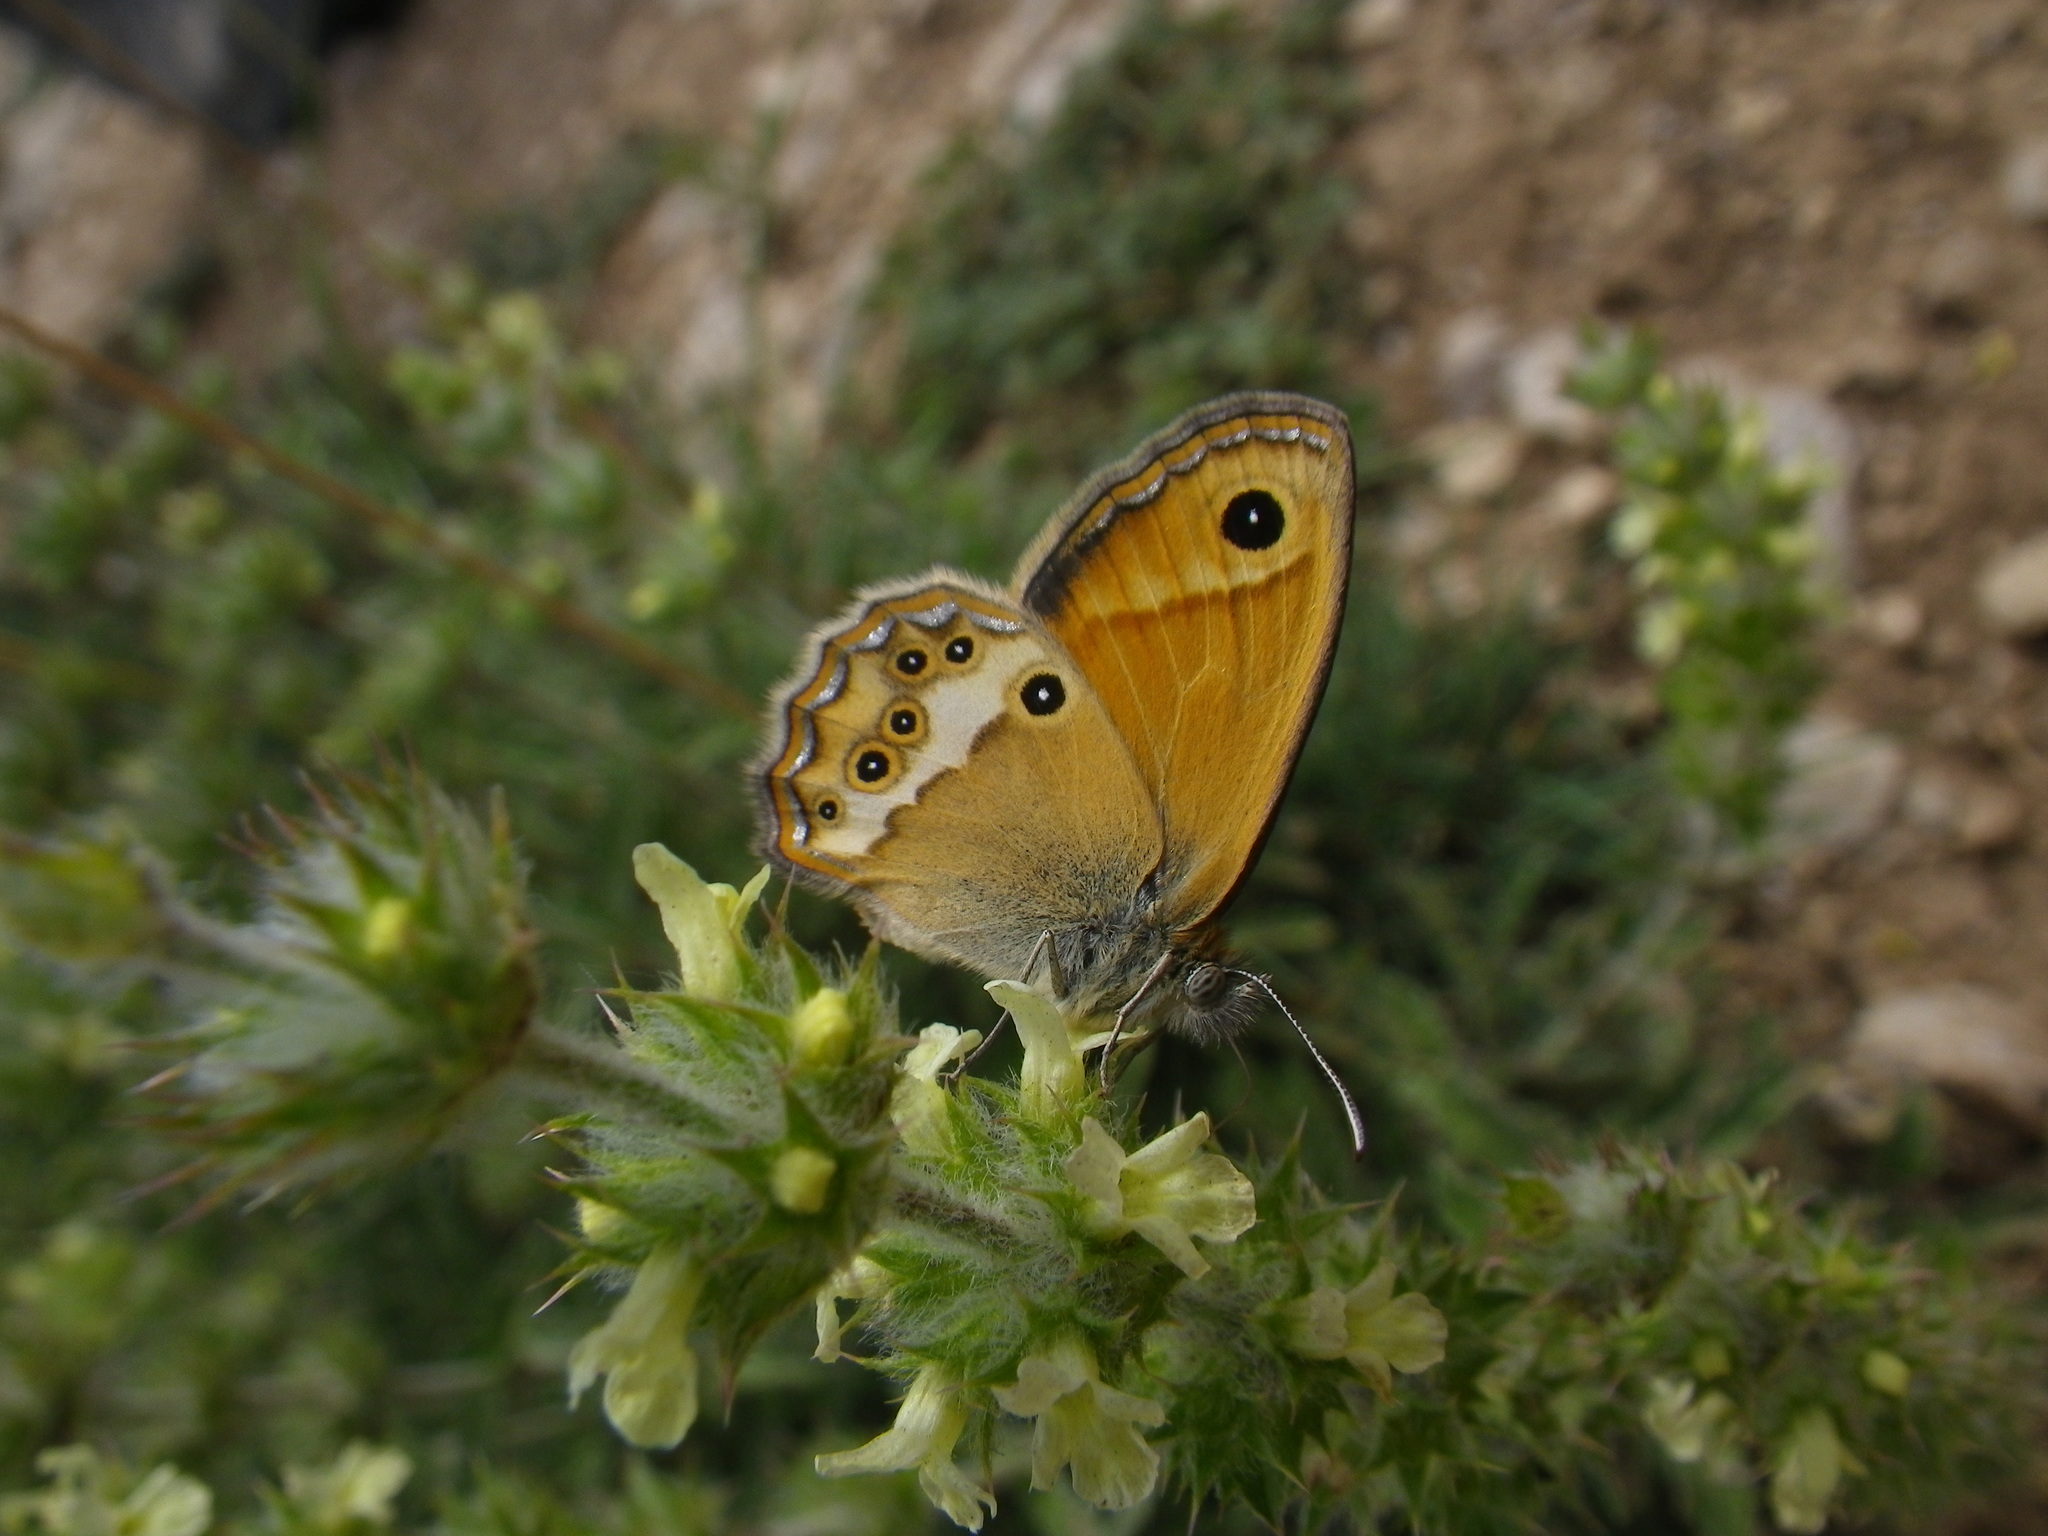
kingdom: Animalia
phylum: Arthropoda
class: Insecta
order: Lepidoptera
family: Nymphalidae
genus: Coenonympha
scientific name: Coenonympha dorus
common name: Dusky heath
